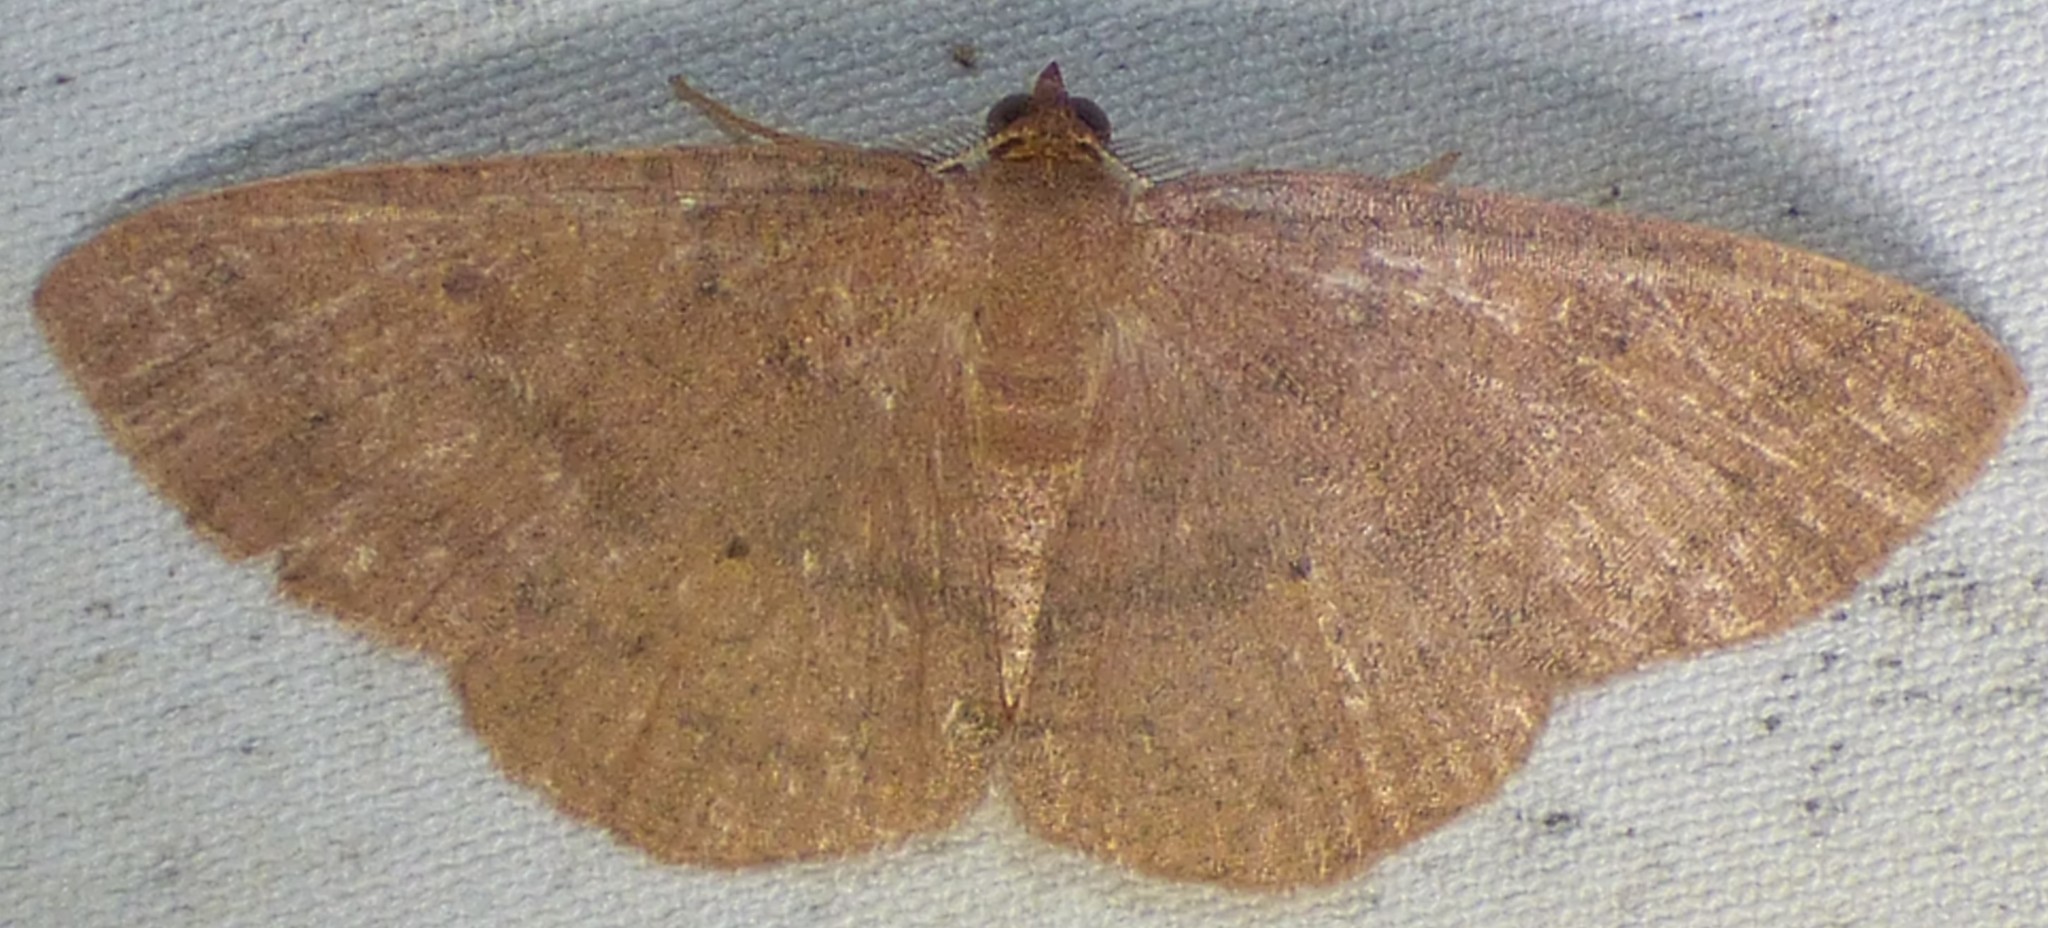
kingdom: Animalia
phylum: Arthropoda
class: Insecta
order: Lepidoptera
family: Geometridae
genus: Ilexia
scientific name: Ilexia intractata
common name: Black-dotted ruddy moth
